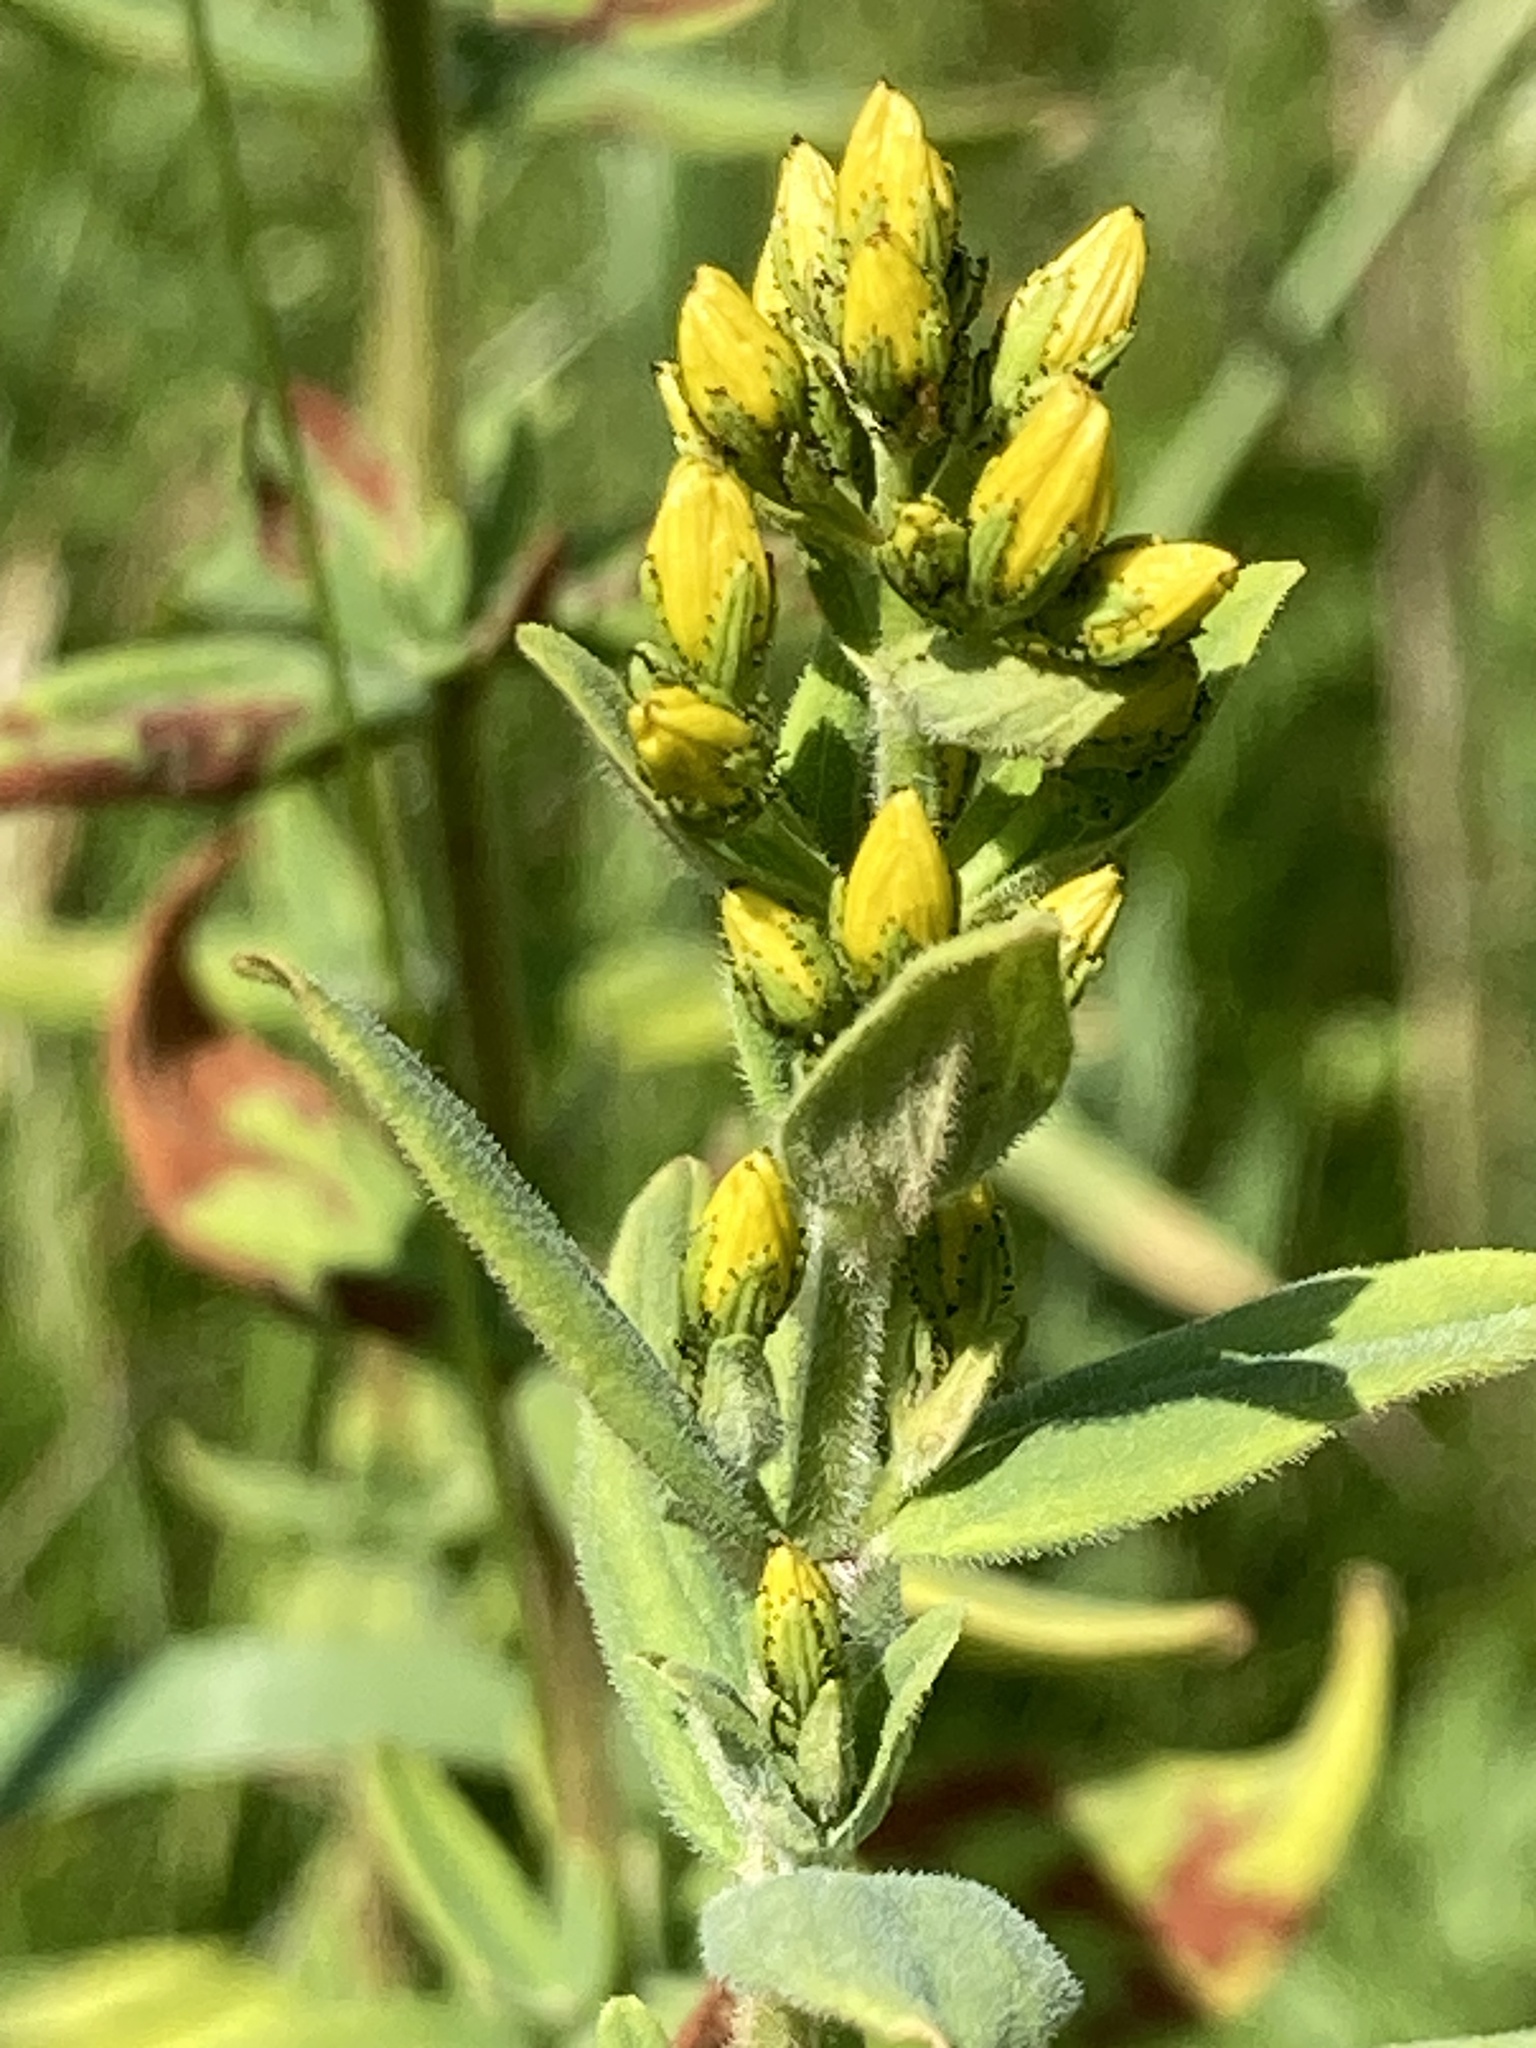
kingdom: Plantae
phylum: Tracheophyta
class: Magnoliopsida
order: Malpighiales
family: Hypericaceae
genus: Hypericum
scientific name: Hypericum hirsutum
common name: Hairy st. john's-wort
